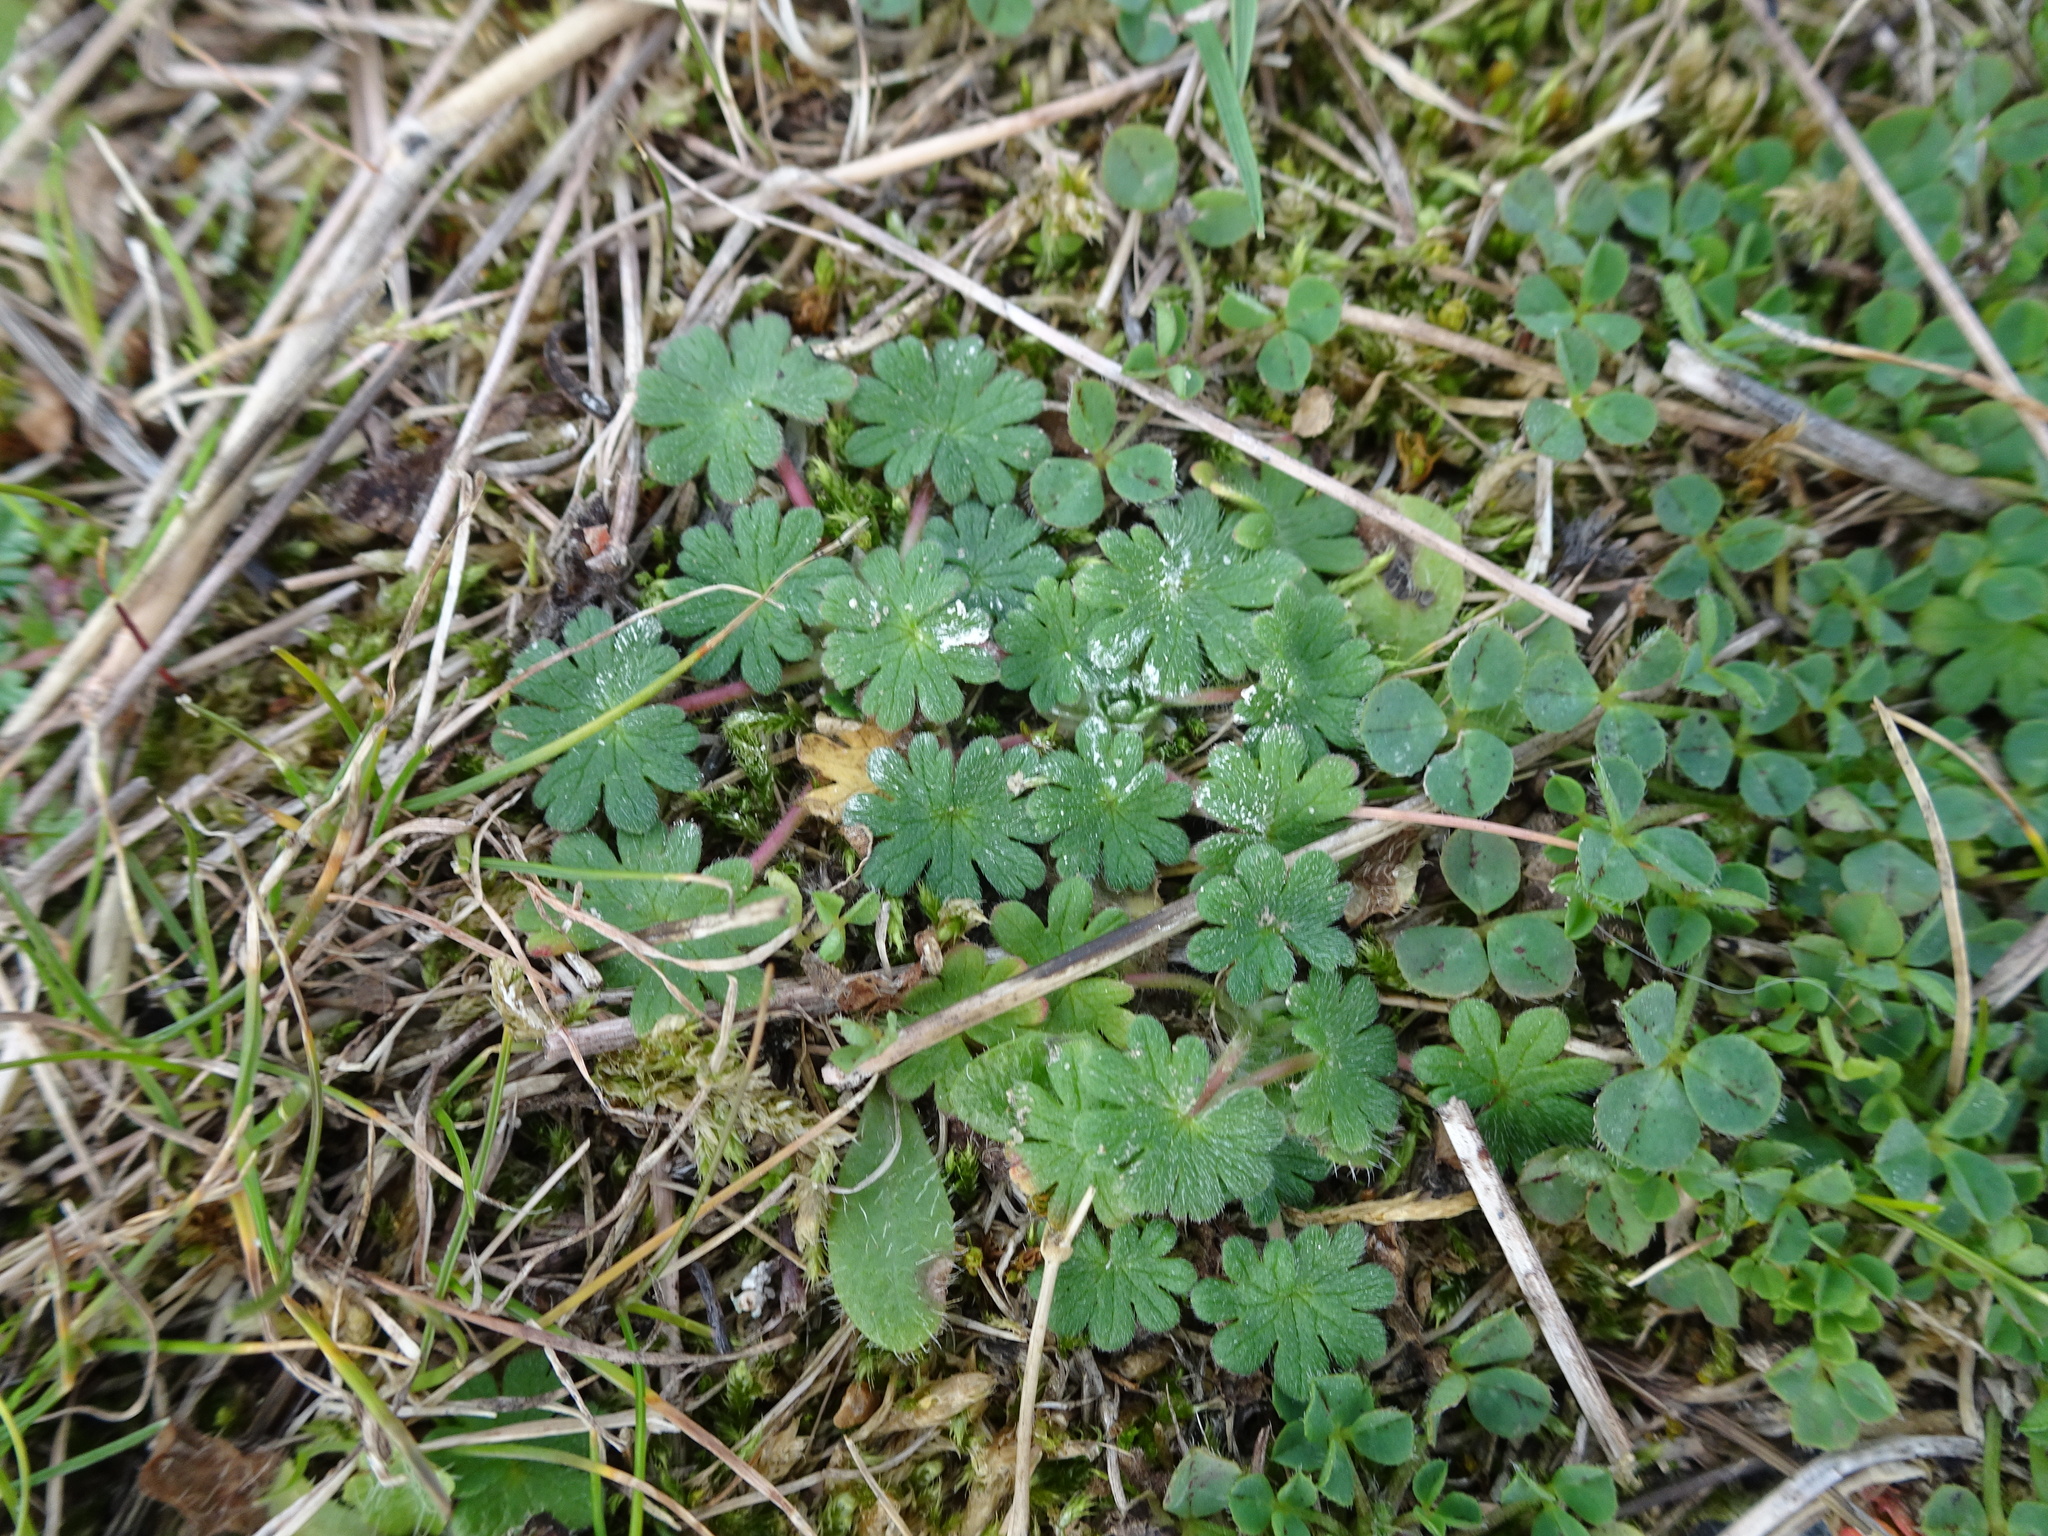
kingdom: Plantae
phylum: Tracheophyta
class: Magnoliopsida
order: Geraniales
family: Geraniaceae
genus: Geranium
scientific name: Geranium molle
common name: Dove's-foot crane's-bill
